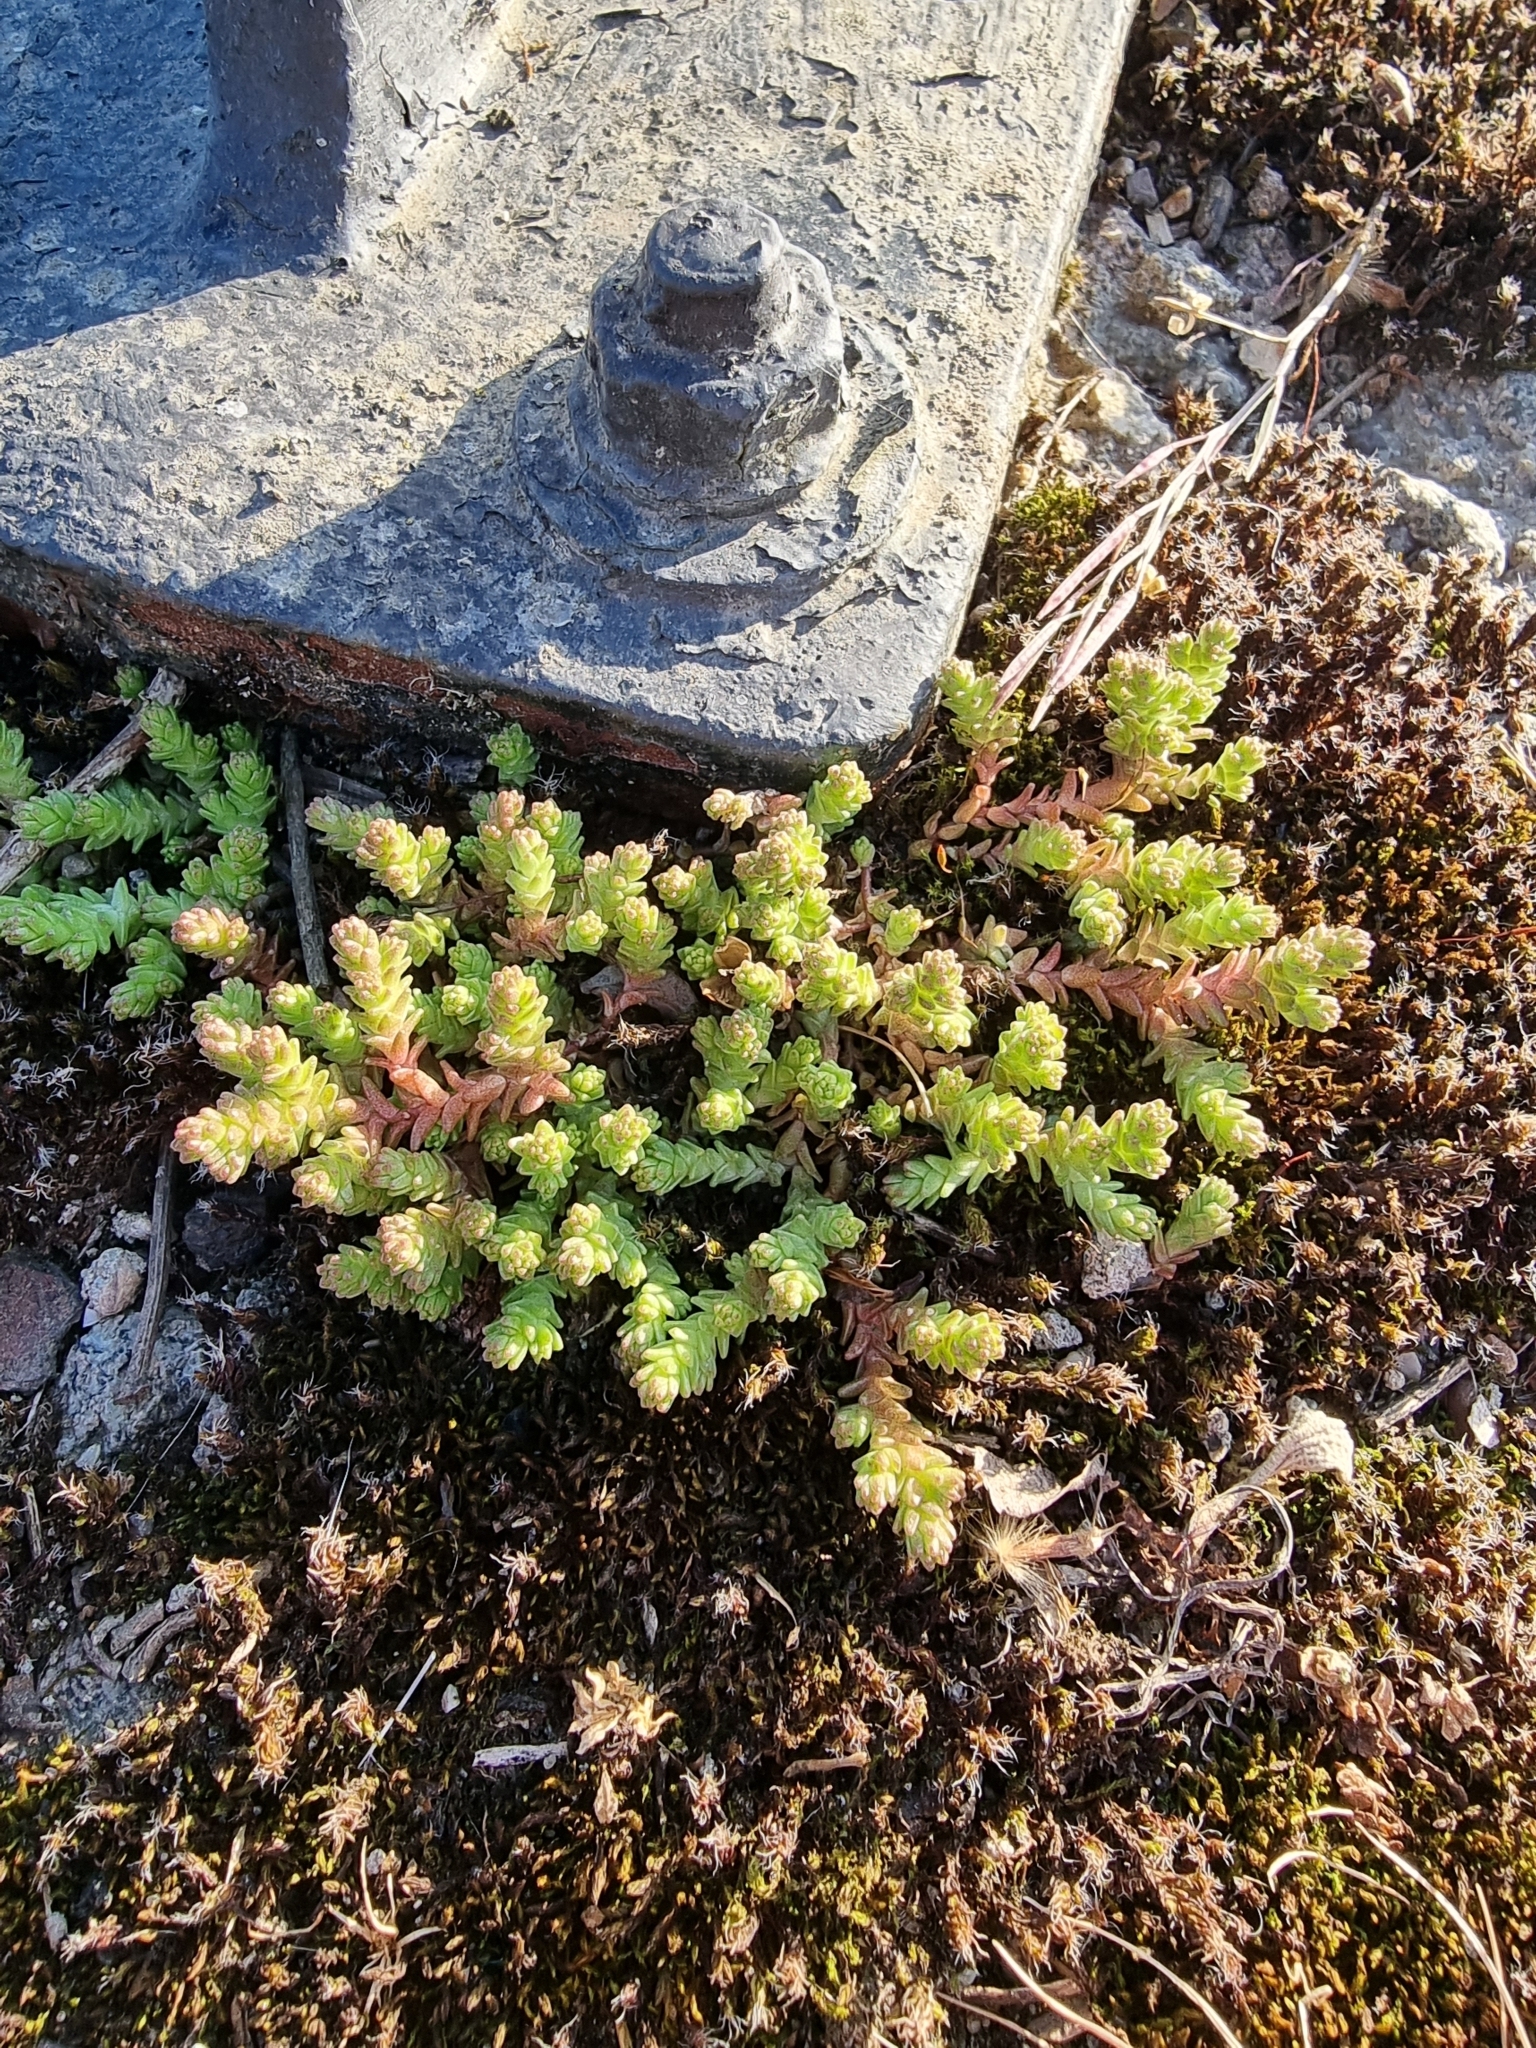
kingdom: Plantae
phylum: Tracheophyta
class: Magnoliopsida
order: Saxifragales
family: Crassulaceae
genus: Sedum
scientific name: Sedum acre
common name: Biting stonecrop
